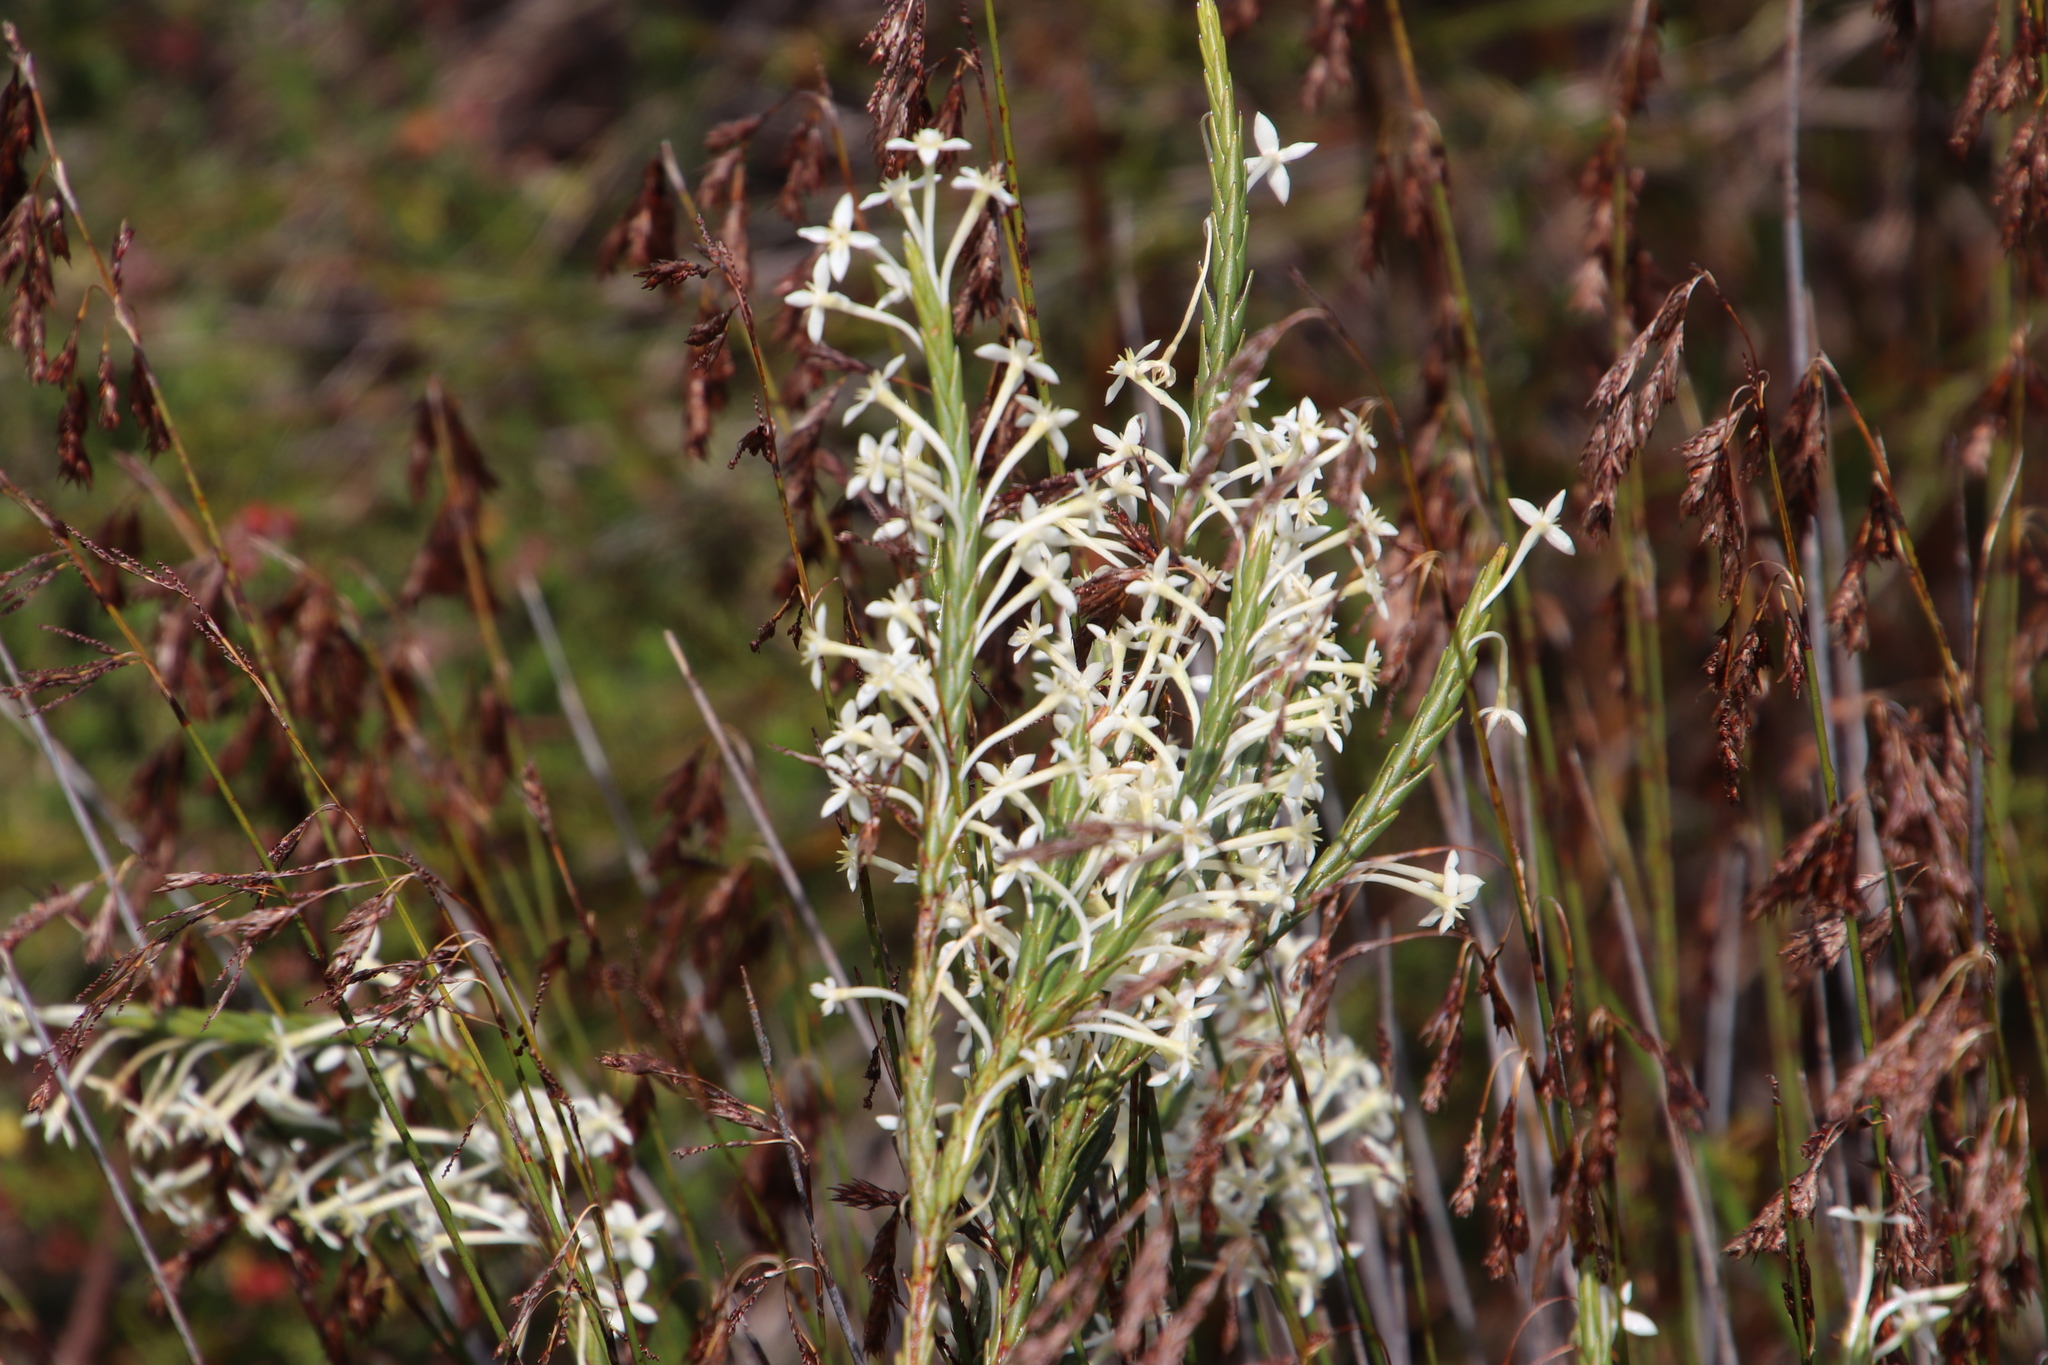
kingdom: Plantae
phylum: Tracheophyta
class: Magnoliopsida
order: Malvales
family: Thymelaeaceae
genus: Struthiola
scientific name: Struthiola ciliata
